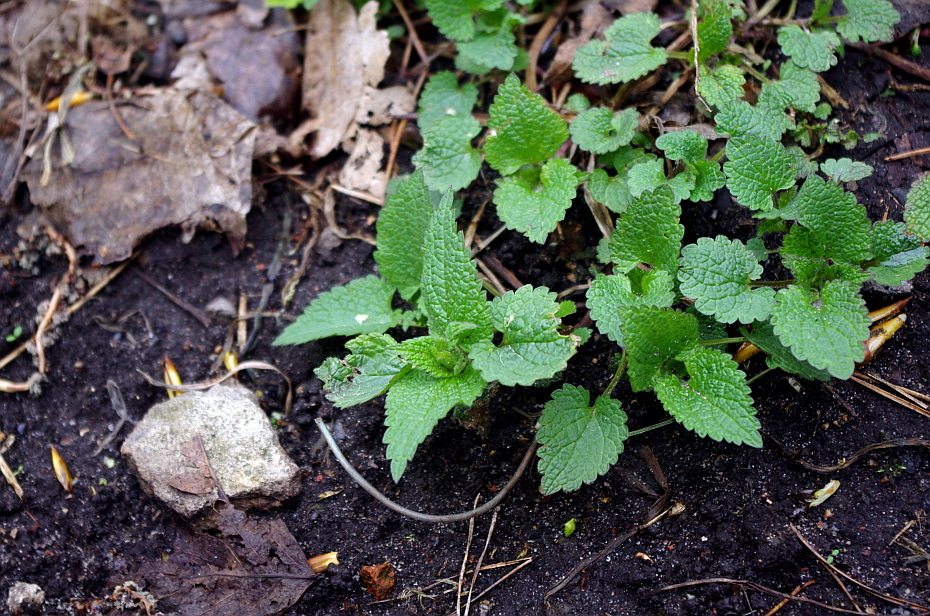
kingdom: Plantae
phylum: Tracheophyta
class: Magnoliopsida
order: Lamiales
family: Lamiaceae
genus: Lamium
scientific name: Lamium album
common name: White dead-nettle
